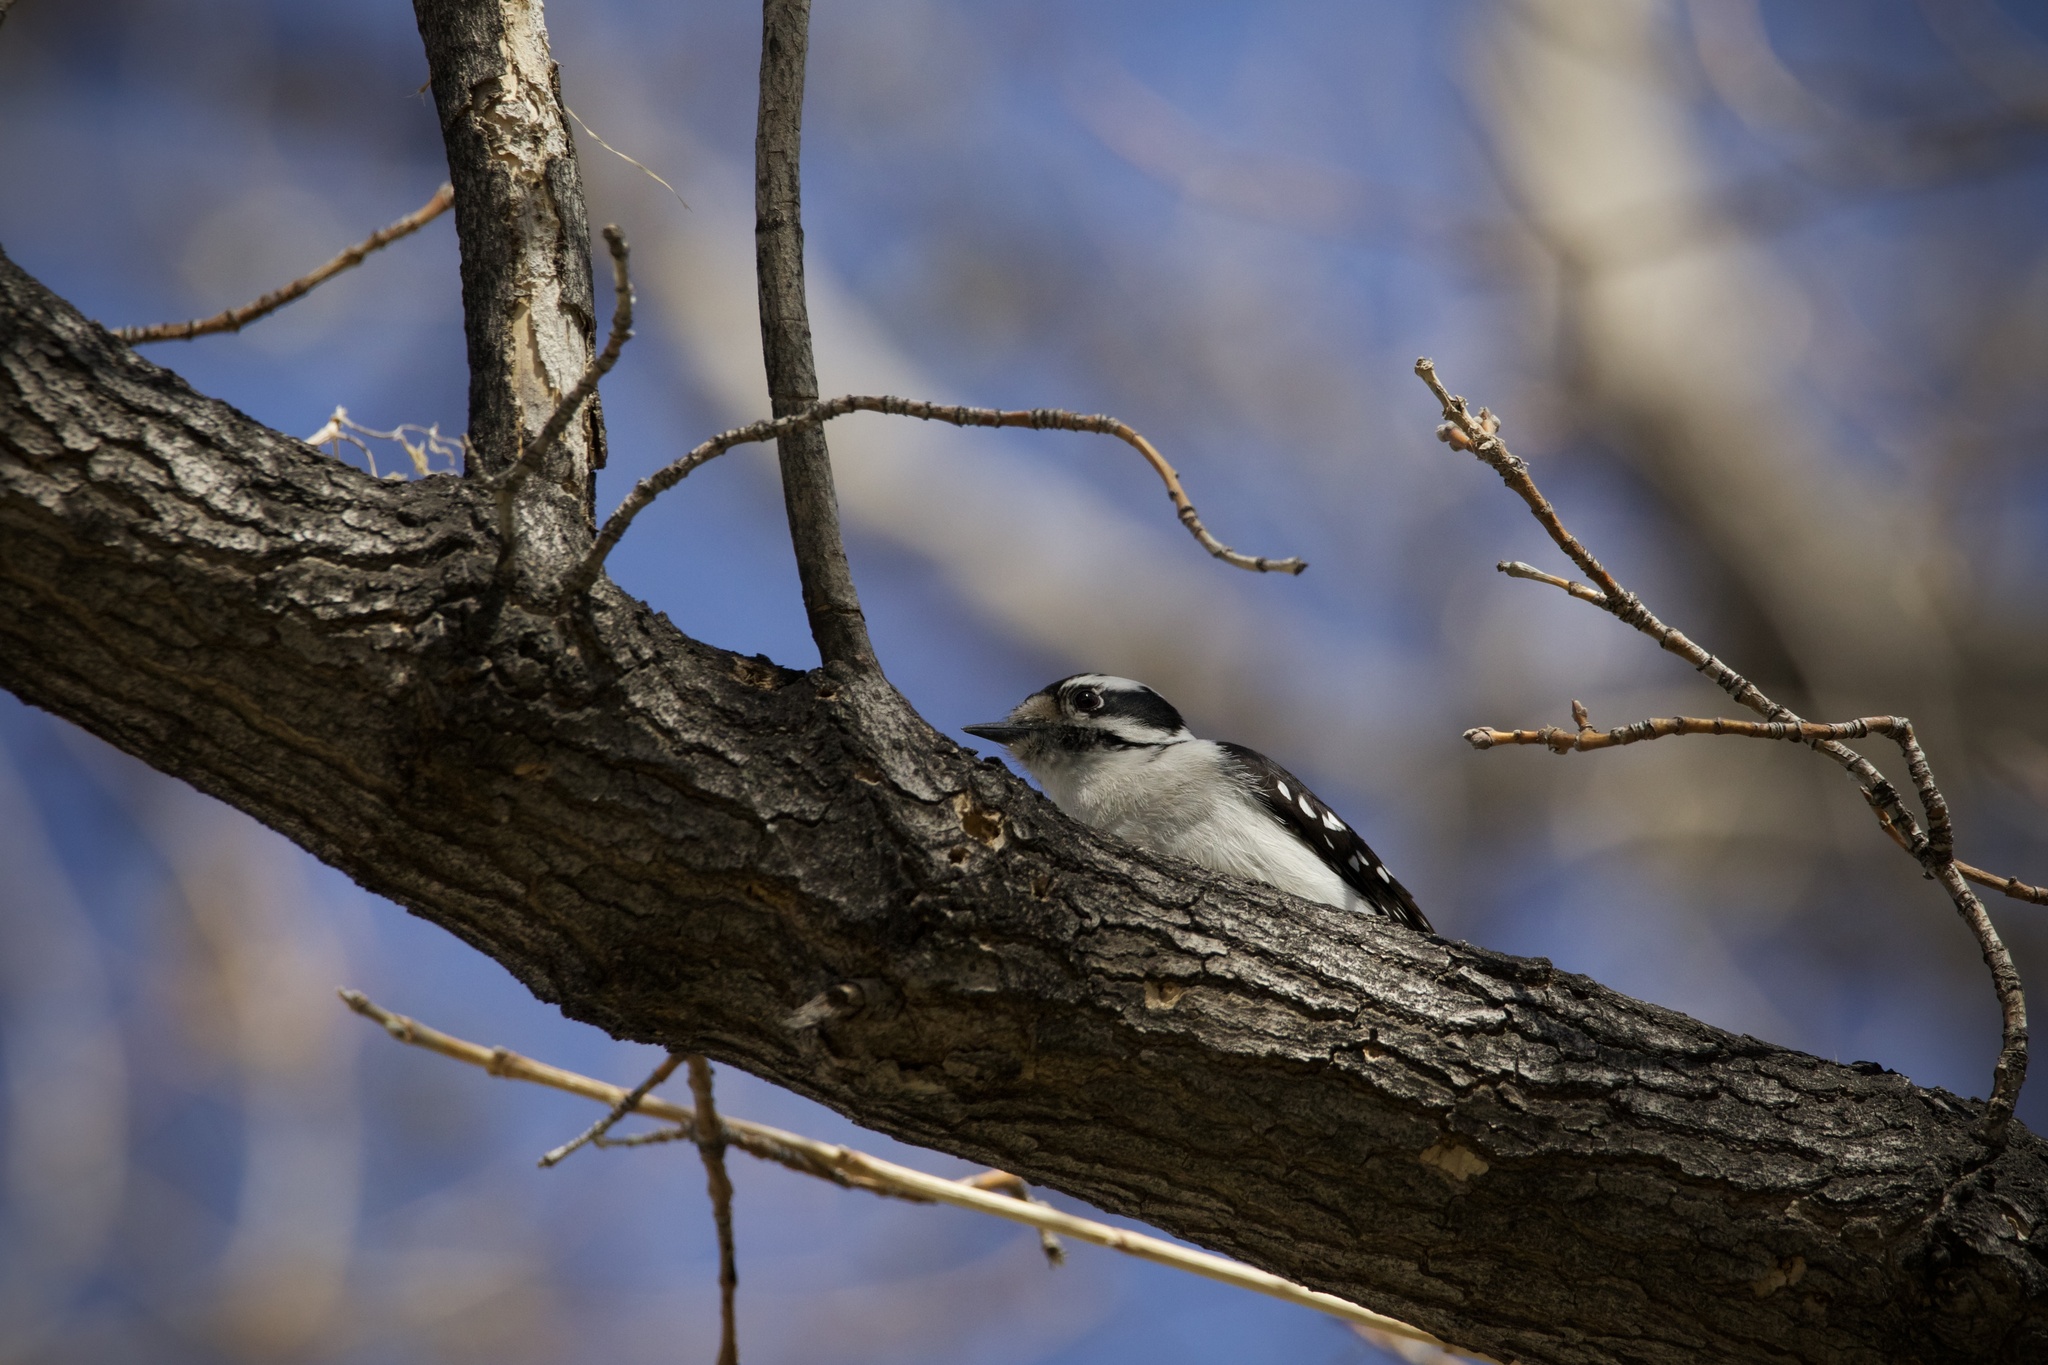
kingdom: Animalia
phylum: Chordata
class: Aves
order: Piciformes
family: Picidae
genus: Dryobates
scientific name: Dryobates pubescens
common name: Downy woodpecker
